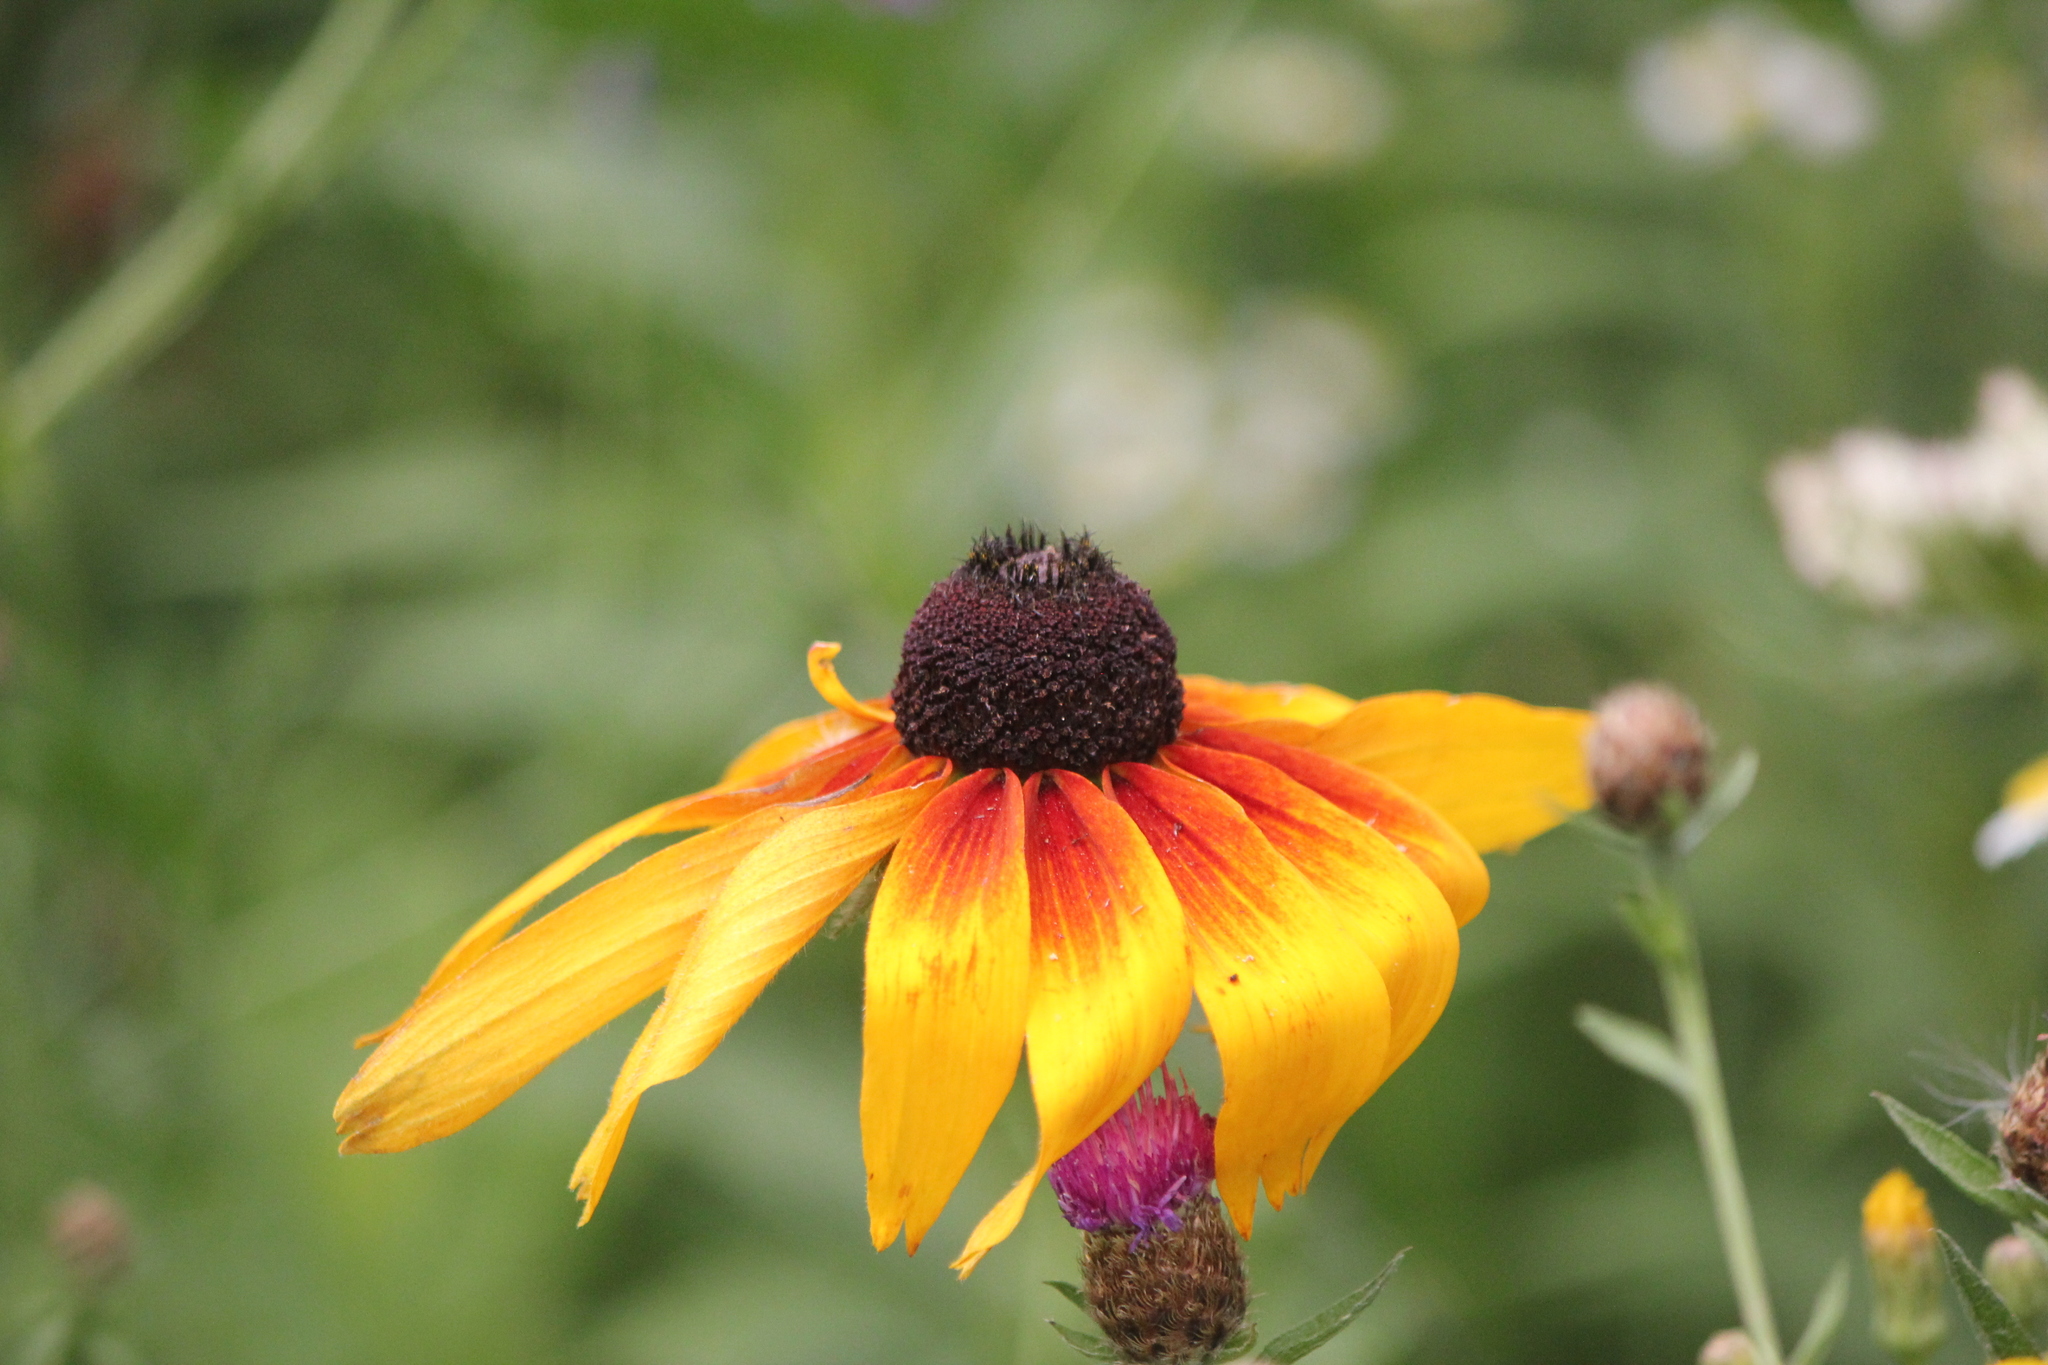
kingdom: Plantae
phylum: Tracheophyta
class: Magnoliopsida
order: Asterales
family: Asteraceae
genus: Rudbeckia
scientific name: Rudbeckia hirta
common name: Black-eyed-susan
